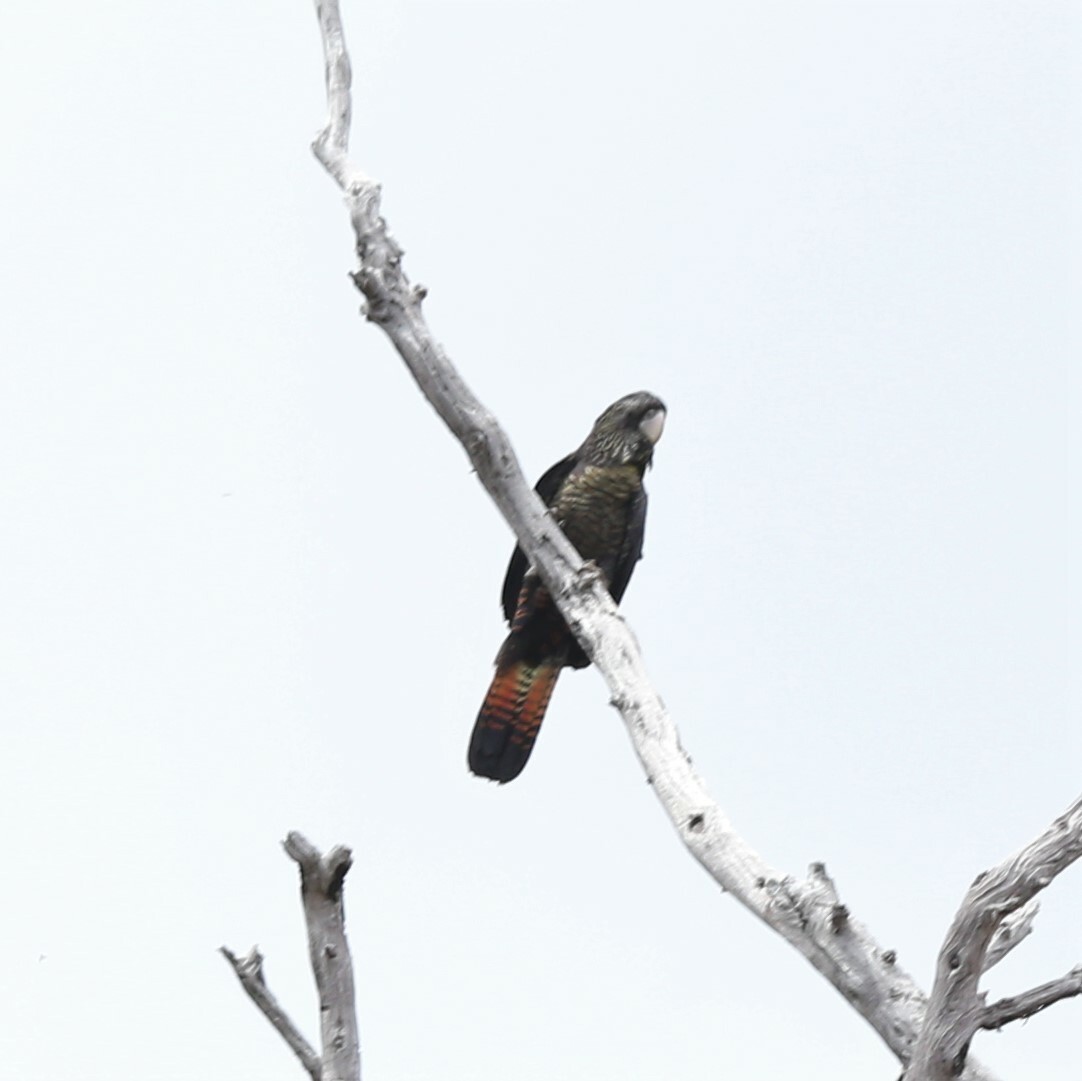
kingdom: Animalia
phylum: Chordata
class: Aves
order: Psittaciformes
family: Psittacidae
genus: Calyptorhynchus
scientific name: Calyptorhynchus banksii
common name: Red-tailed black cockatoo
